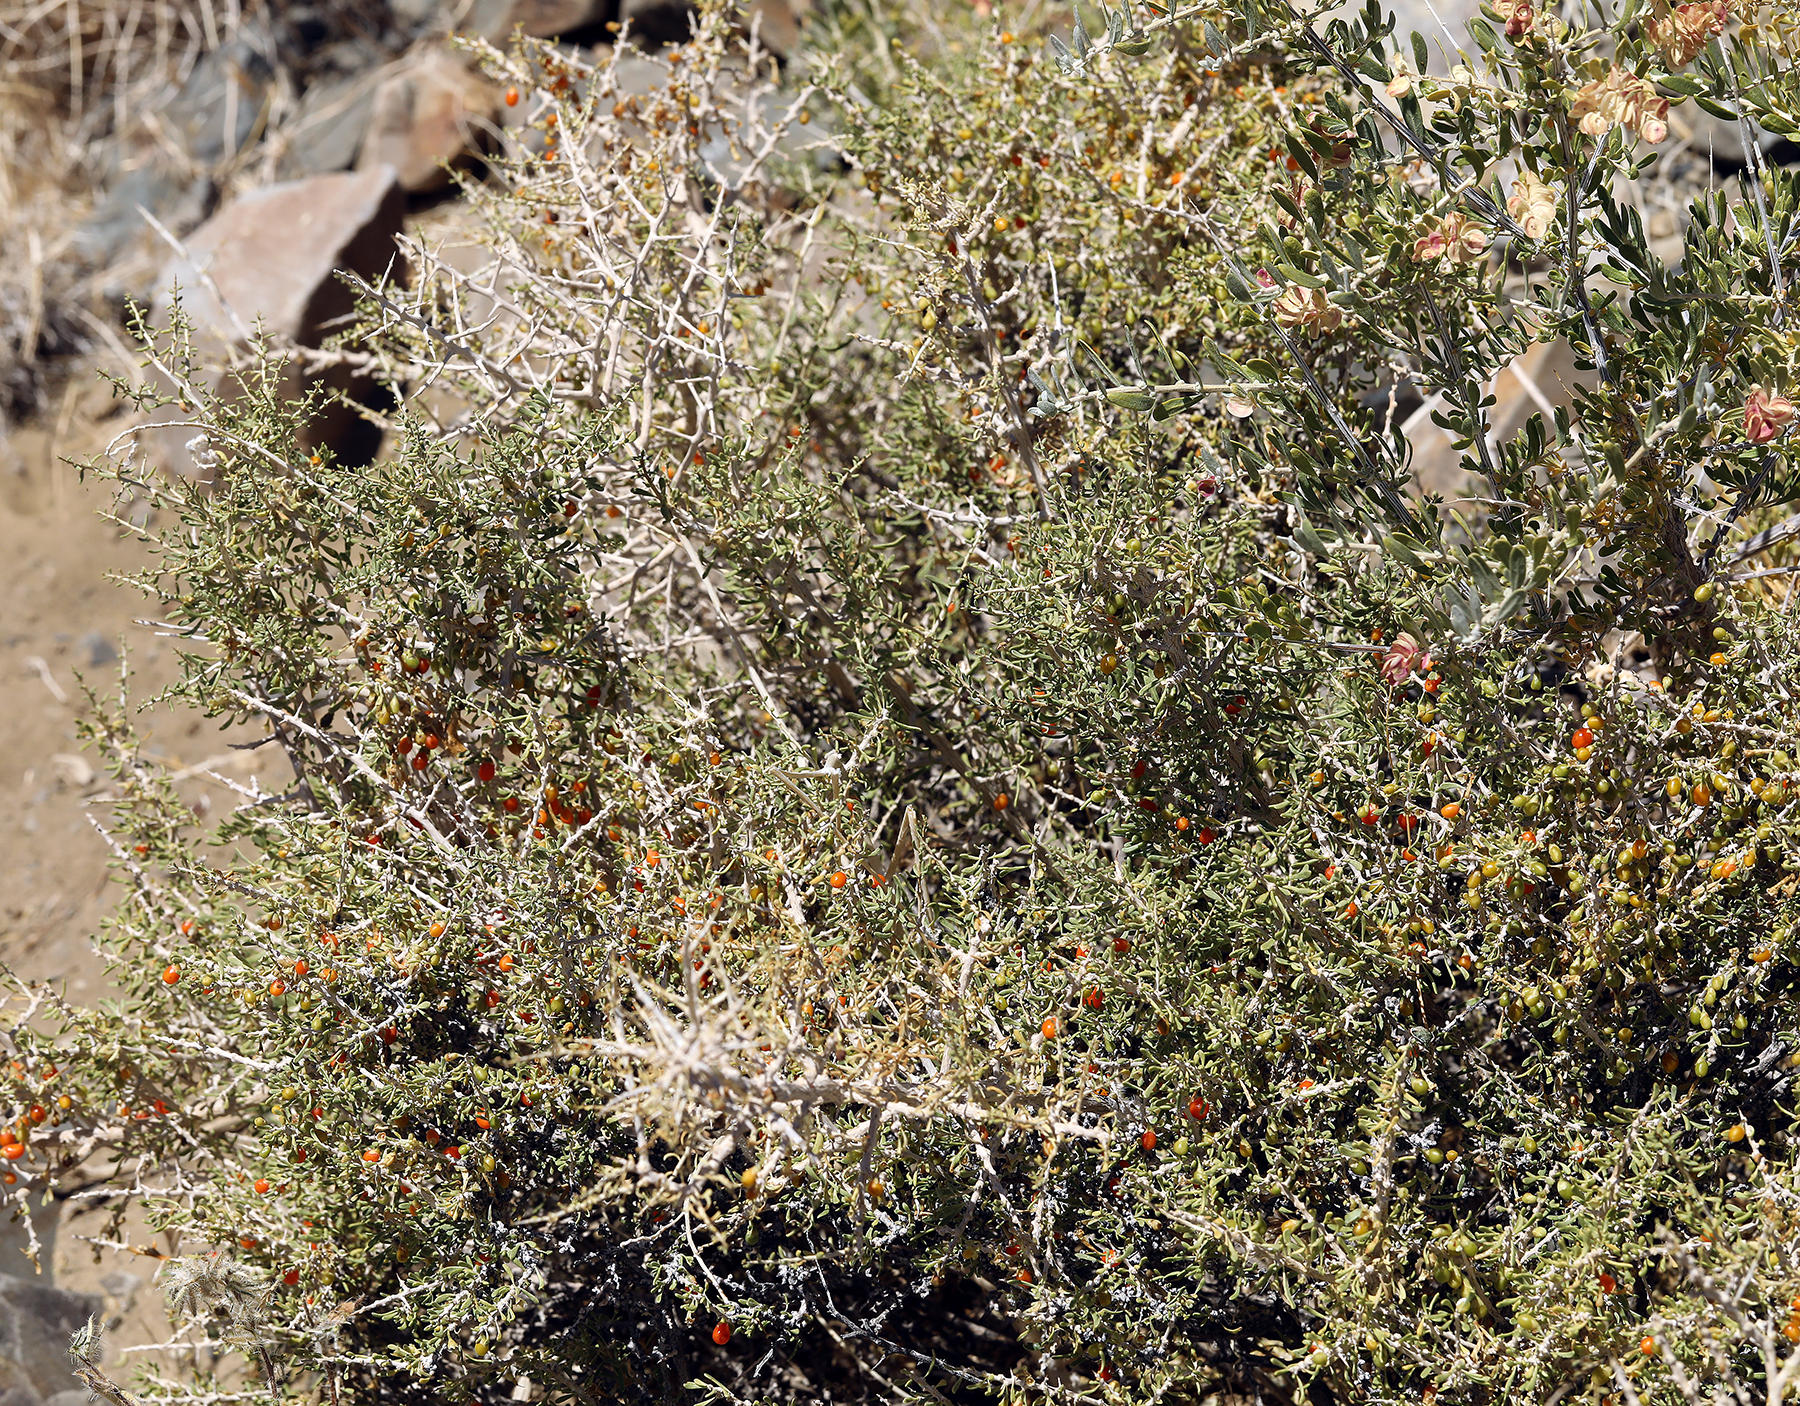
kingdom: Plantae
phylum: Tracheophyta
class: Magnoliopsida
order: Solanales
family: Solanaceae
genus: Lycium
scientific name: Lycium andersonii
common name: Water-jacket
